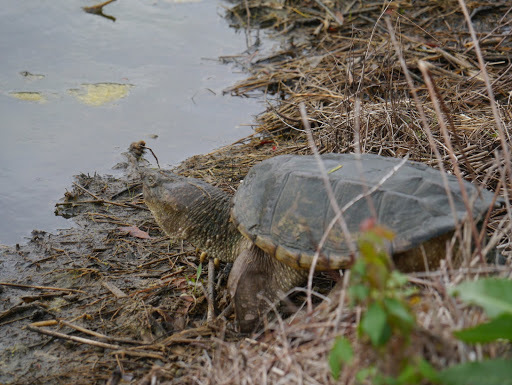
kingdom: Animalia
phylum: Chordata
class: Testudines
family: Chelydridae
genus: Chelydra
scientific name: Chelydra serpentina
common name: Common snapping turtle
